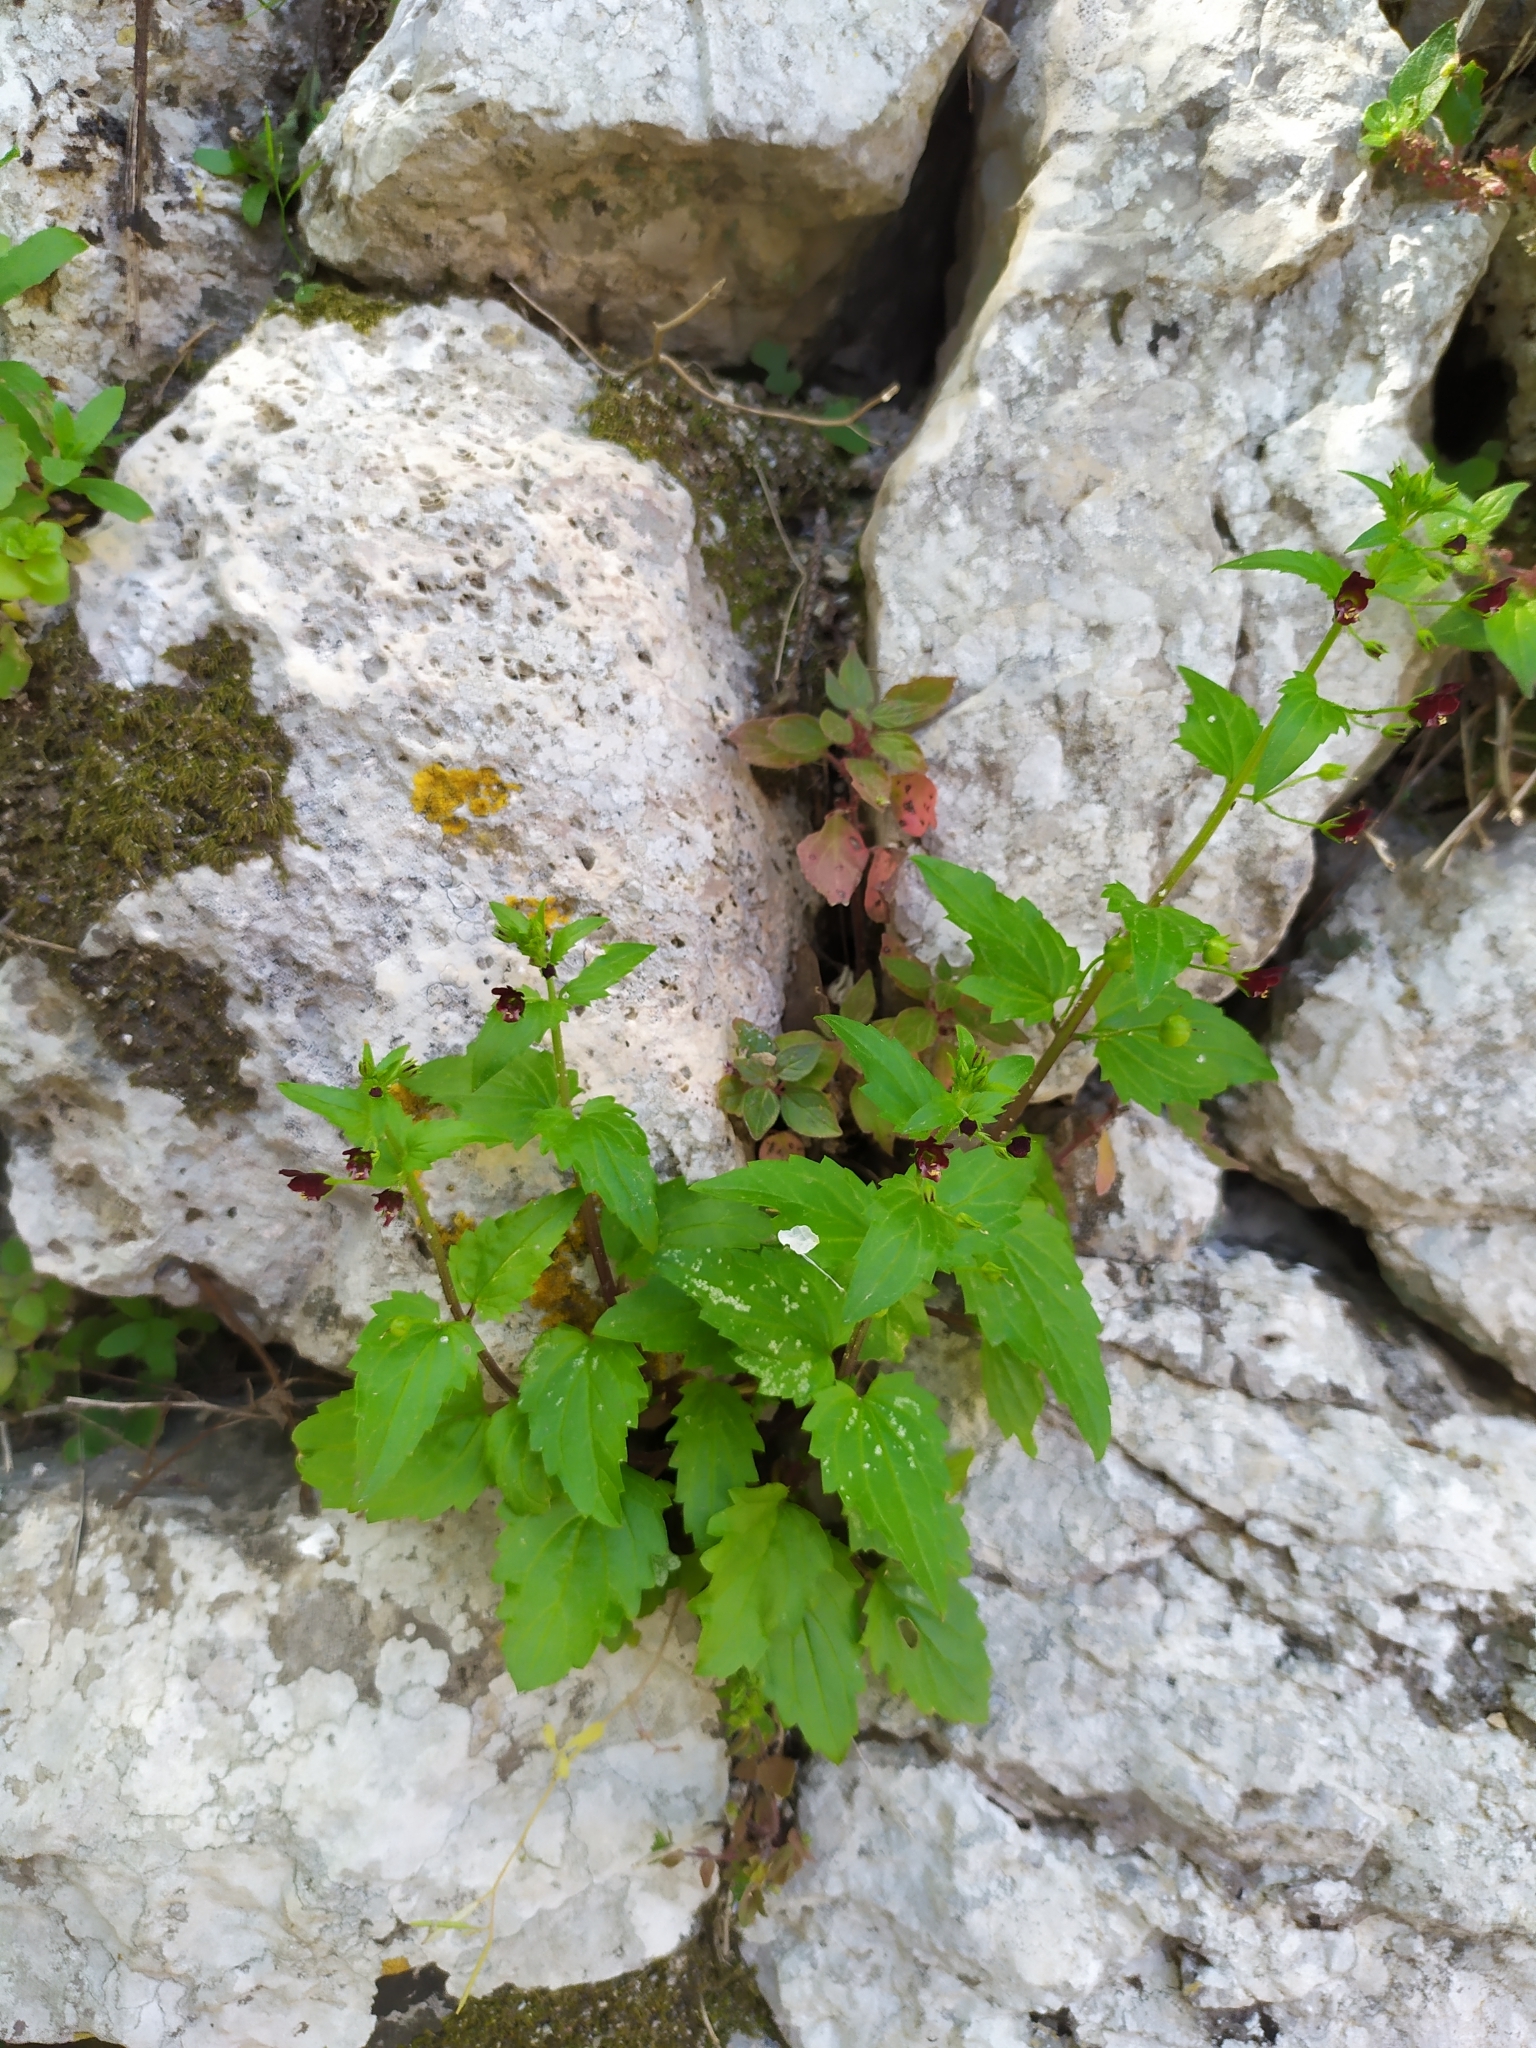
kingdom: Plantae
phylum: Tracheophyta
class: Magnoliopsida
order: Lamiales
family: Scrophulariaceae
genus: Scrophularia
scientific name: Scrophularia peregrina
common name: Mediterranean figwort
